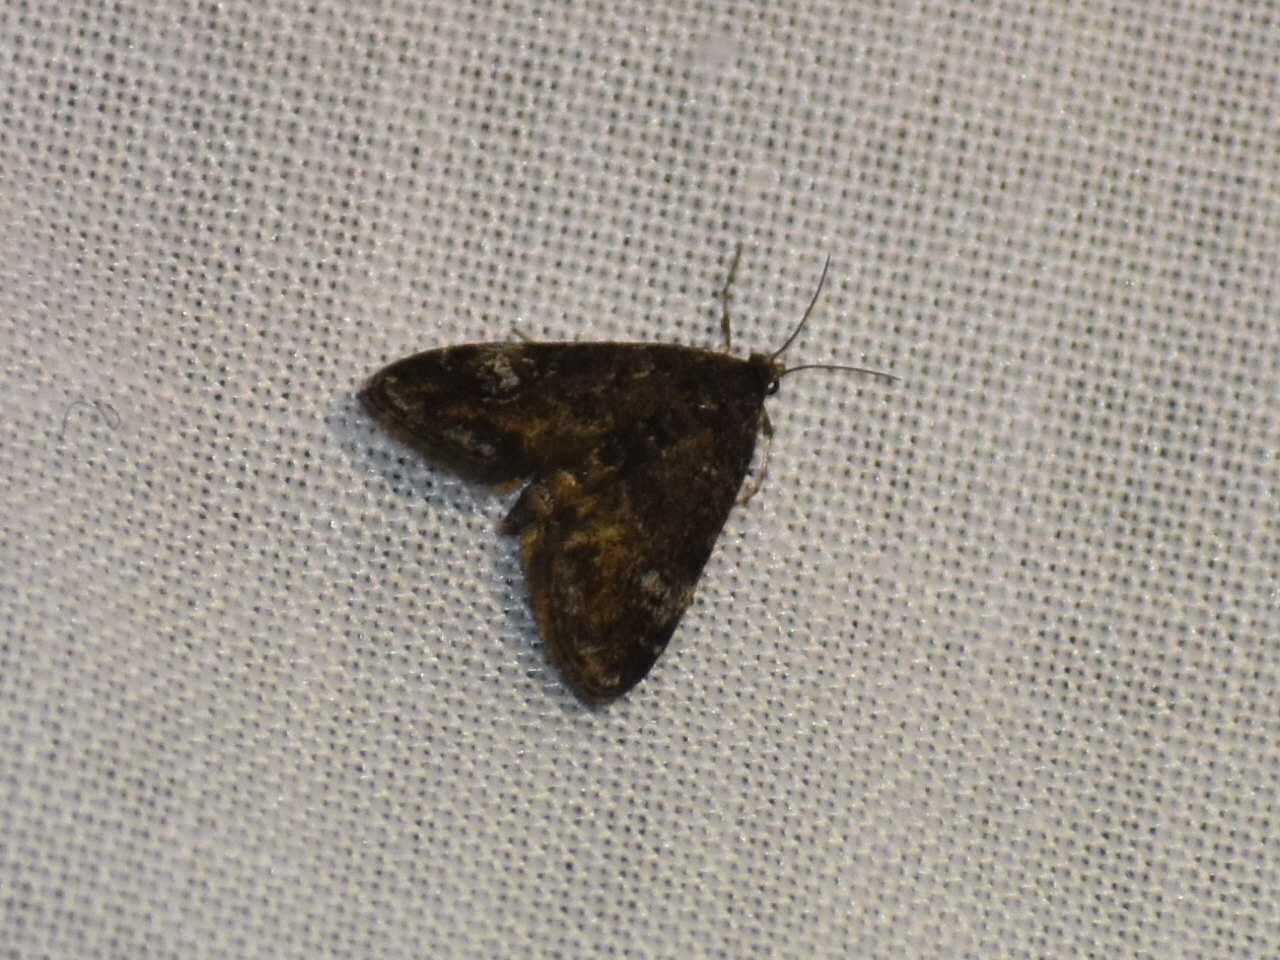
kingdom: Animalia
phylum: Arthropoda
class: Insecta
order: Lepidoptera
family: Crambidae
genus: Elophila
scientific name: Elophila obliteralis
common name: Waterlily leafcutter moth
